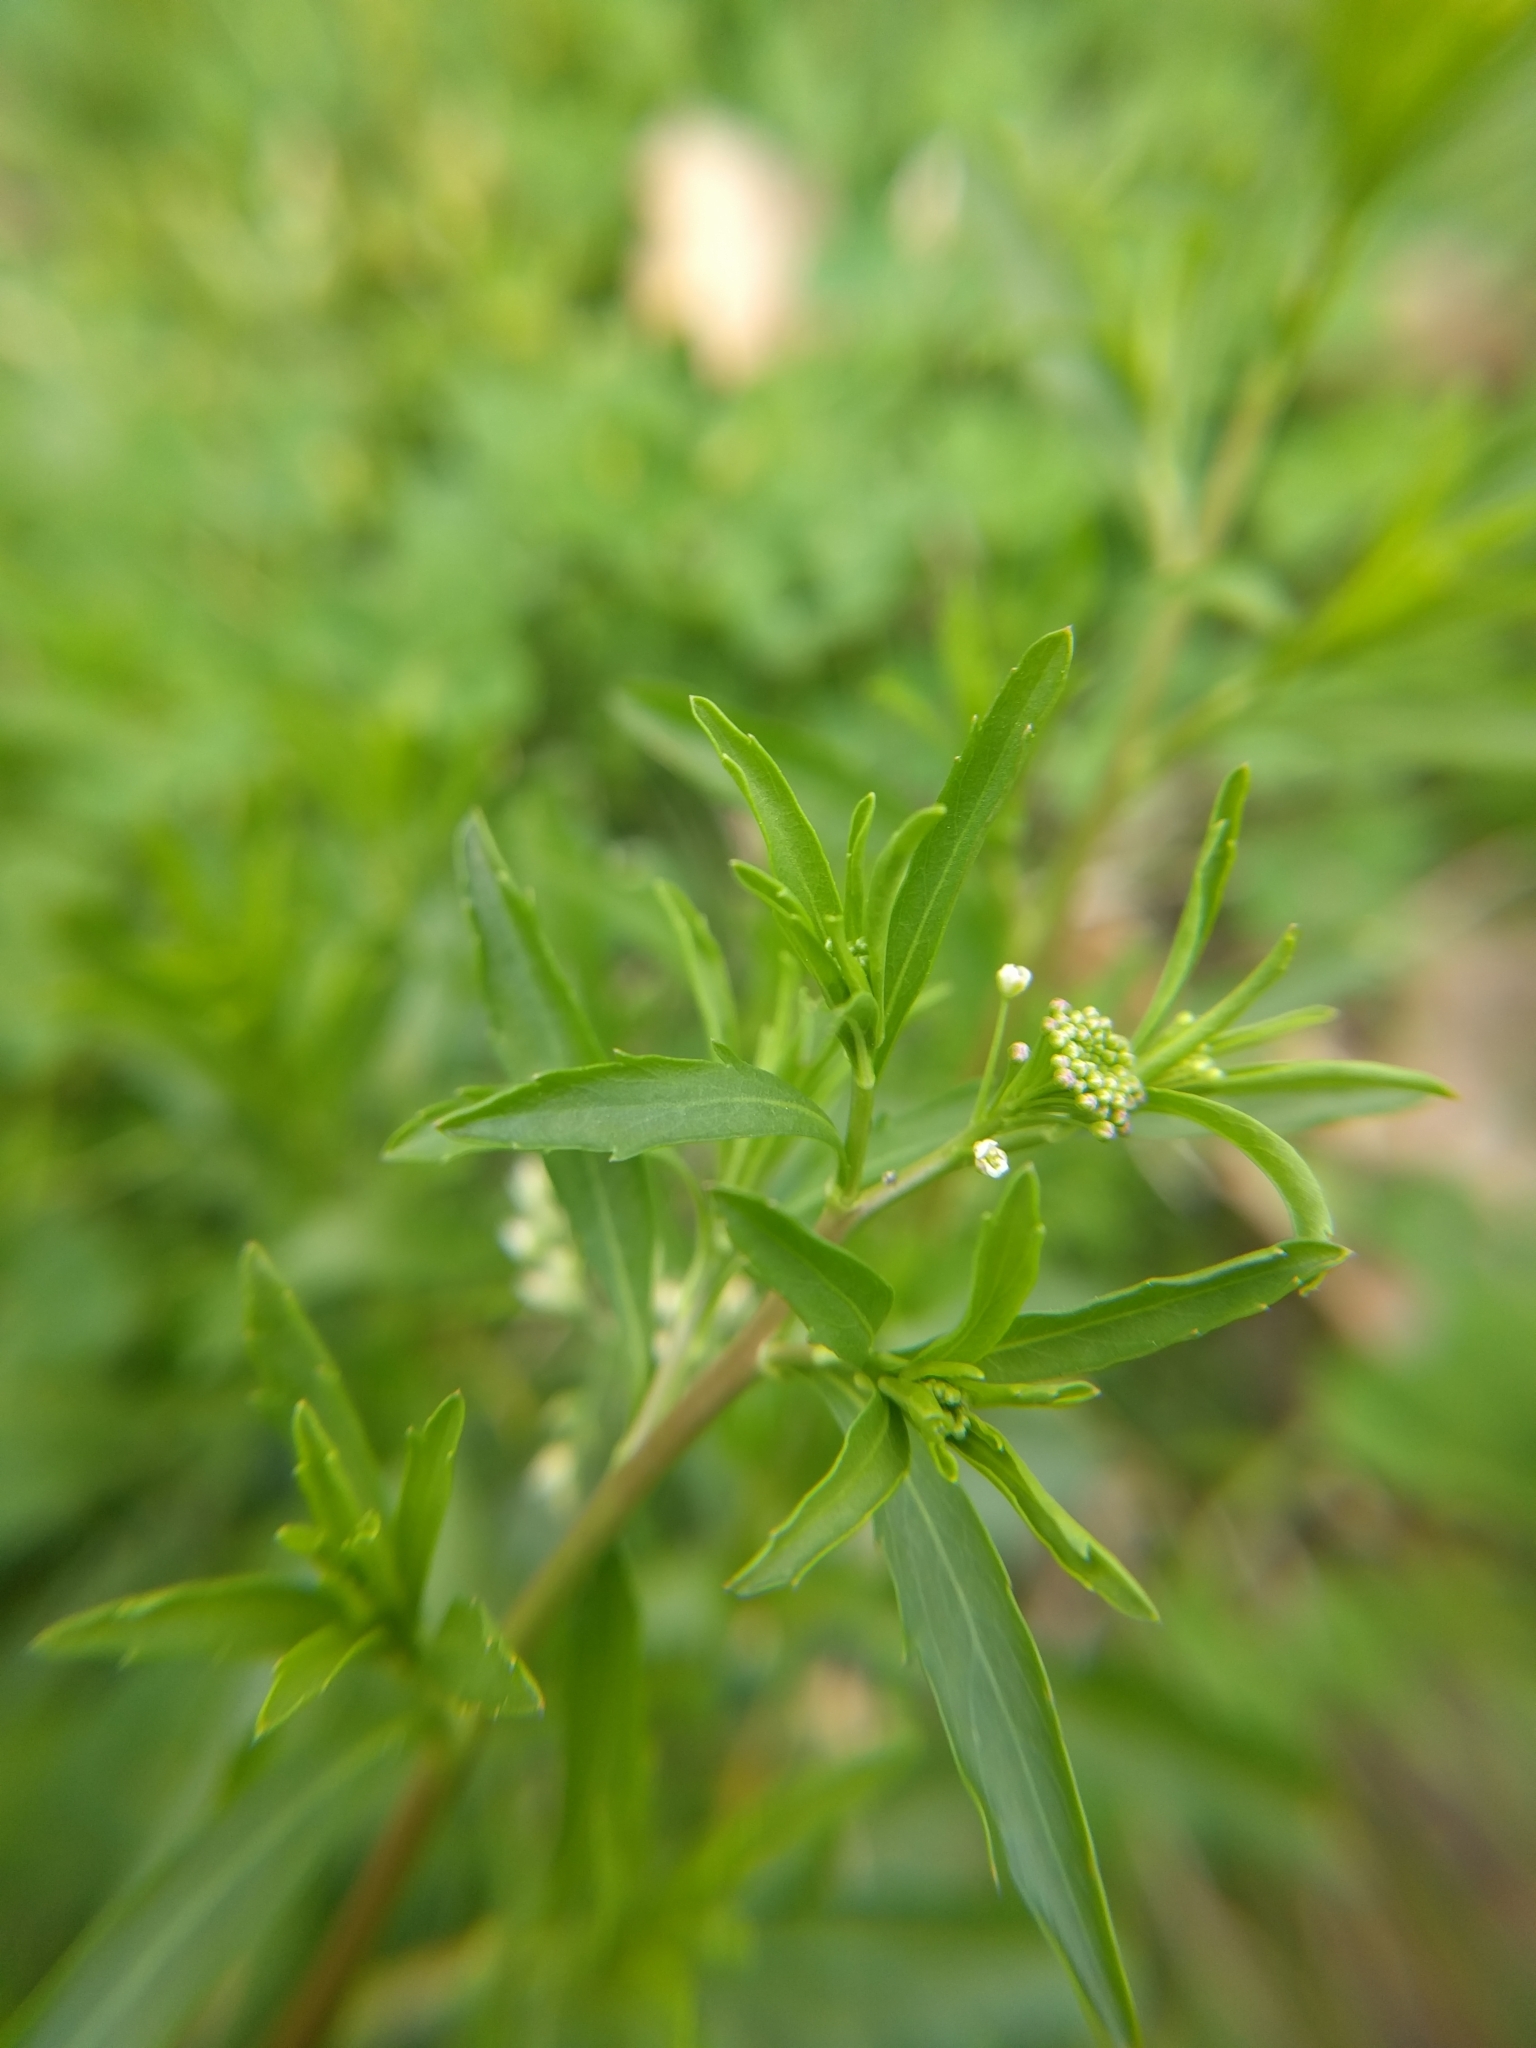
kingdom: Plantae
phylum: Tracheophyta
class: Magnoliopsida
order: Brassicales
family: Brassicaceae
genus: Lepidium
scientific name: Lepidium virginicum
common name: Least pepperwort
